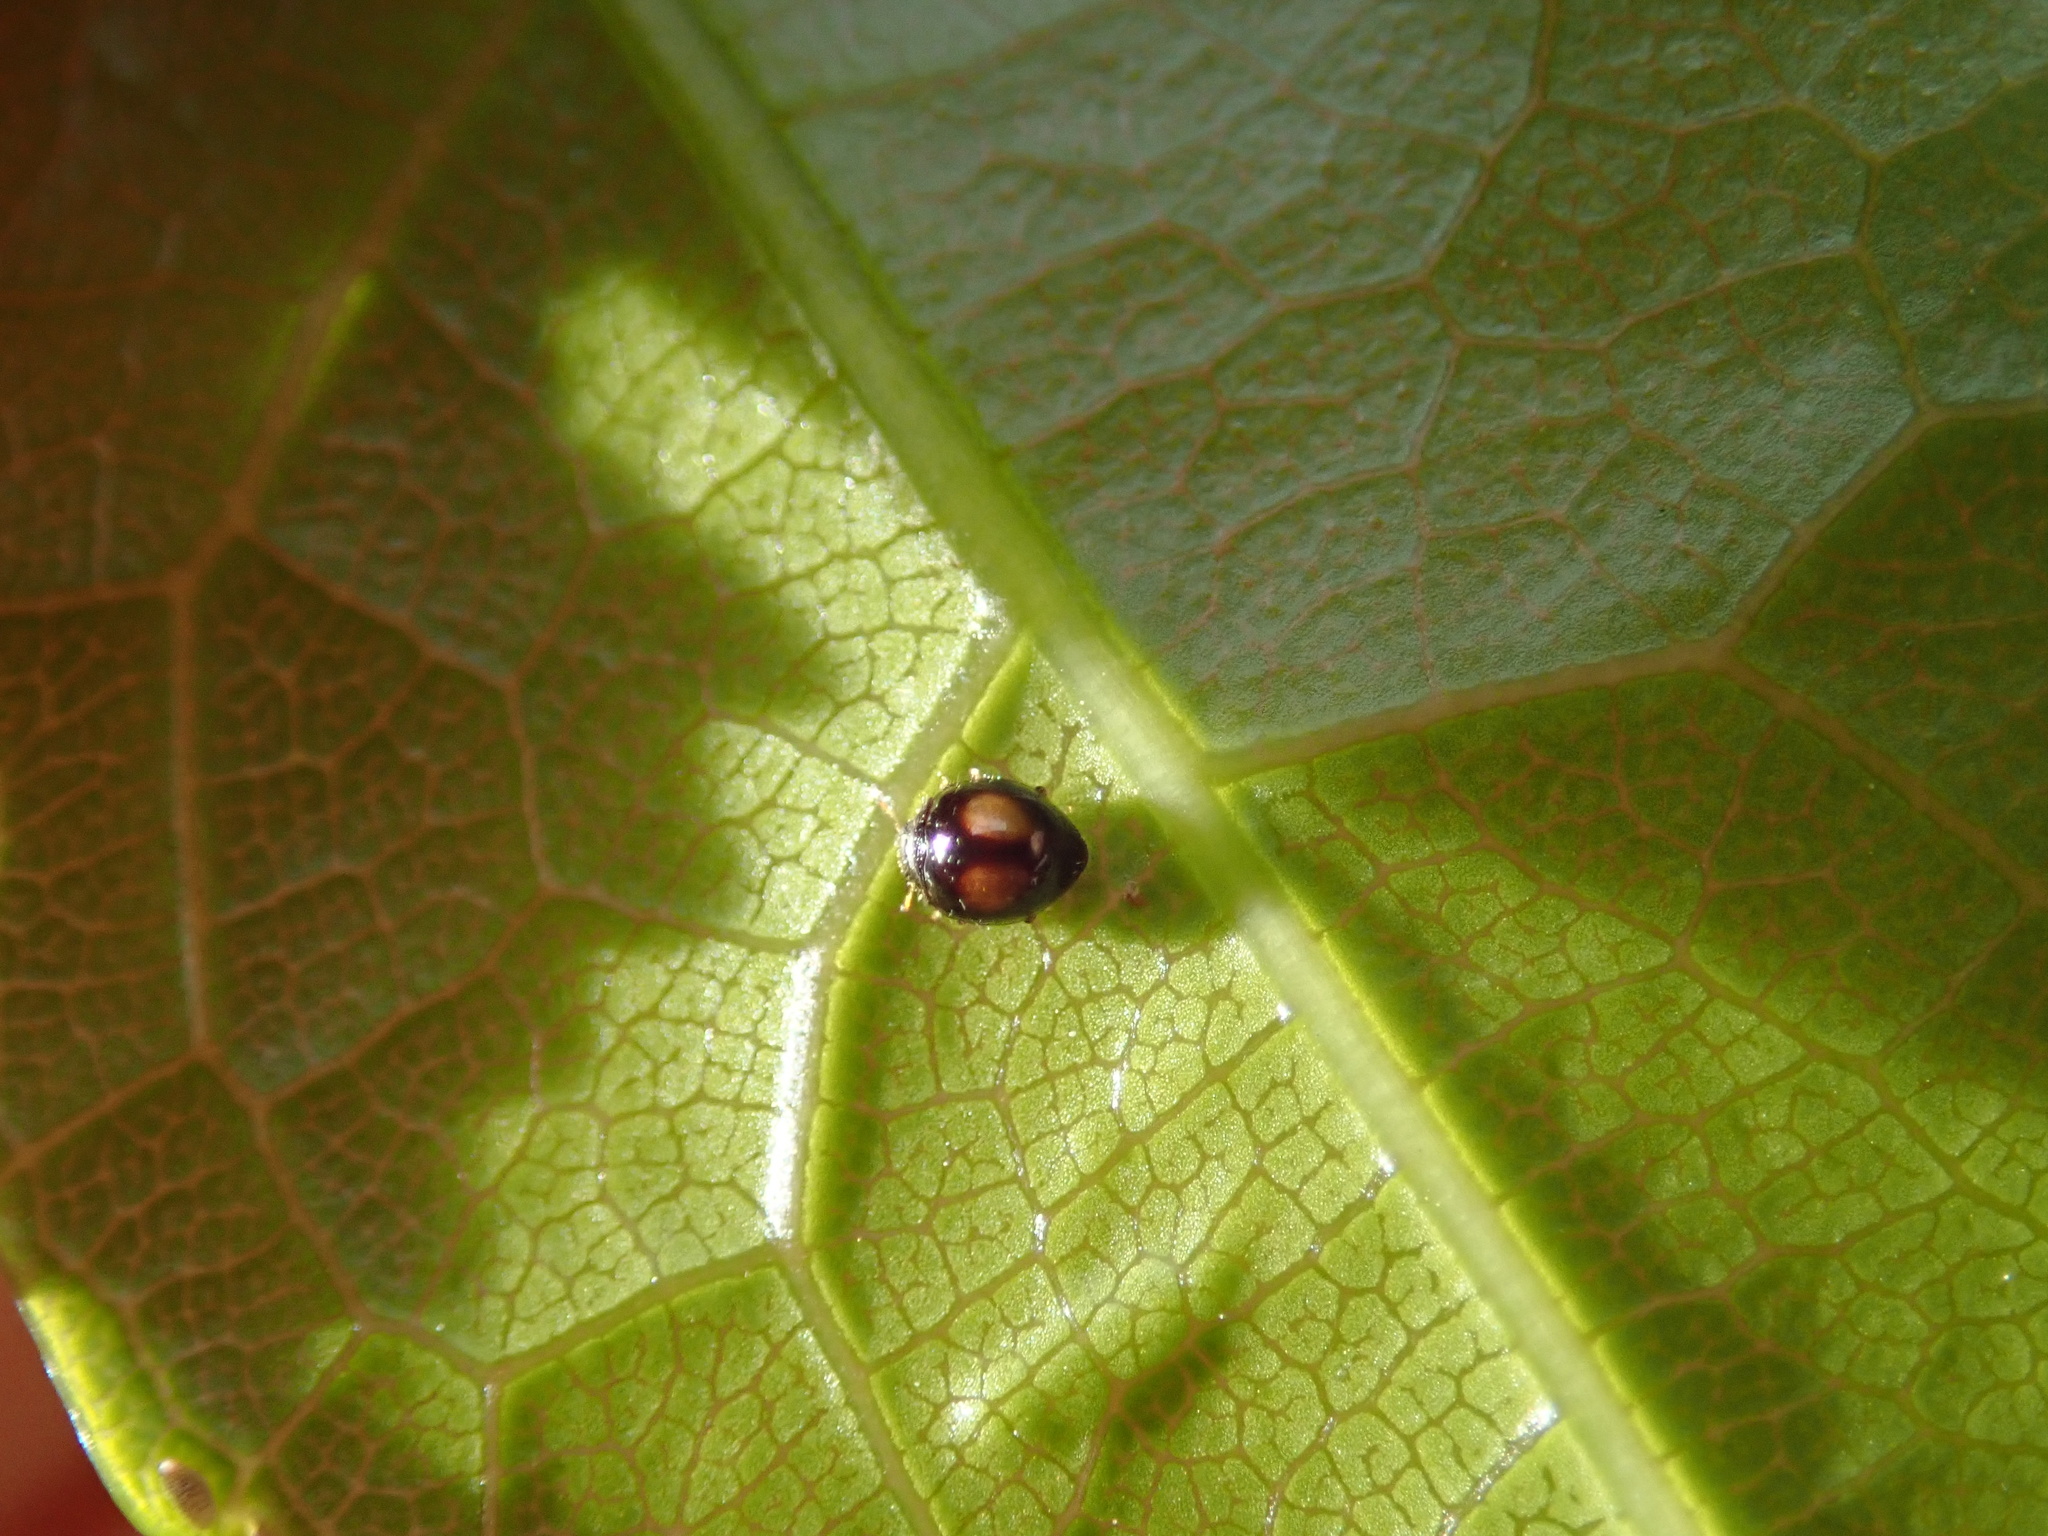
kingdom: Animalia
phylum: Arthropoda
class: Insecta
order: Coleoptera
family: Coccinellidae
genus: Serangium
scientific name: Serangium maculigerum
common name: Lady beetle
